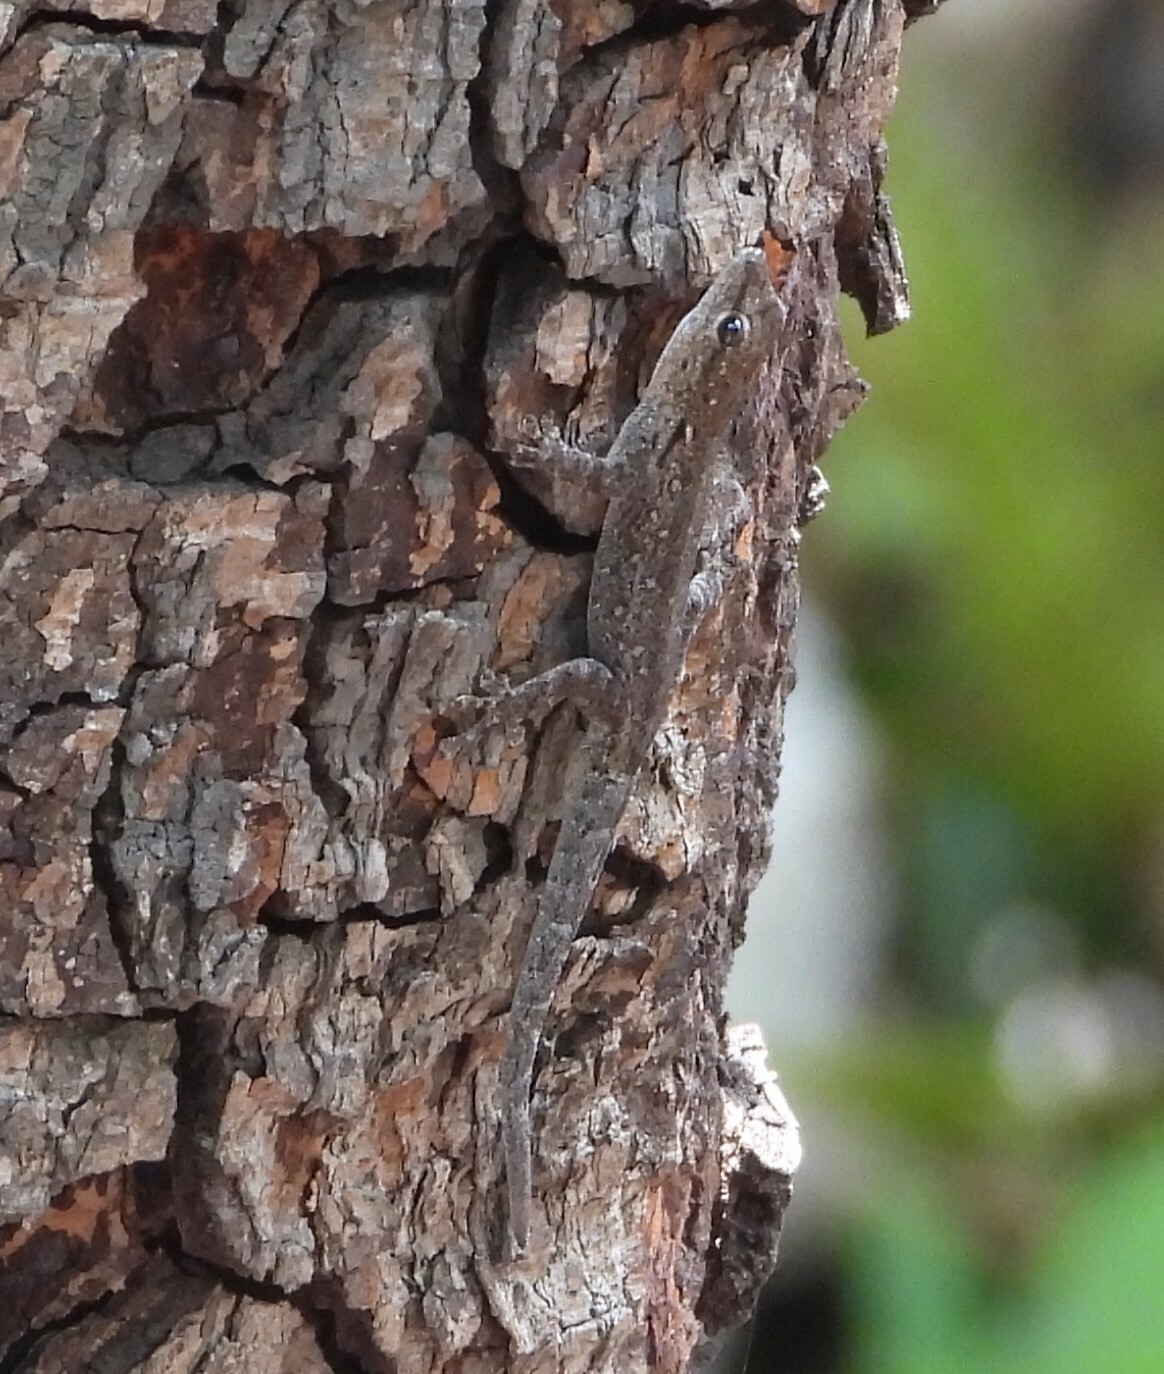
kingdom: Animalia
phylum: Chordata
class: Squamata
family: Gekkonidae
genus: Lygodactylus
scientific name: Lygodactylus chobiensis
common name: Okavango dwarf gecko
